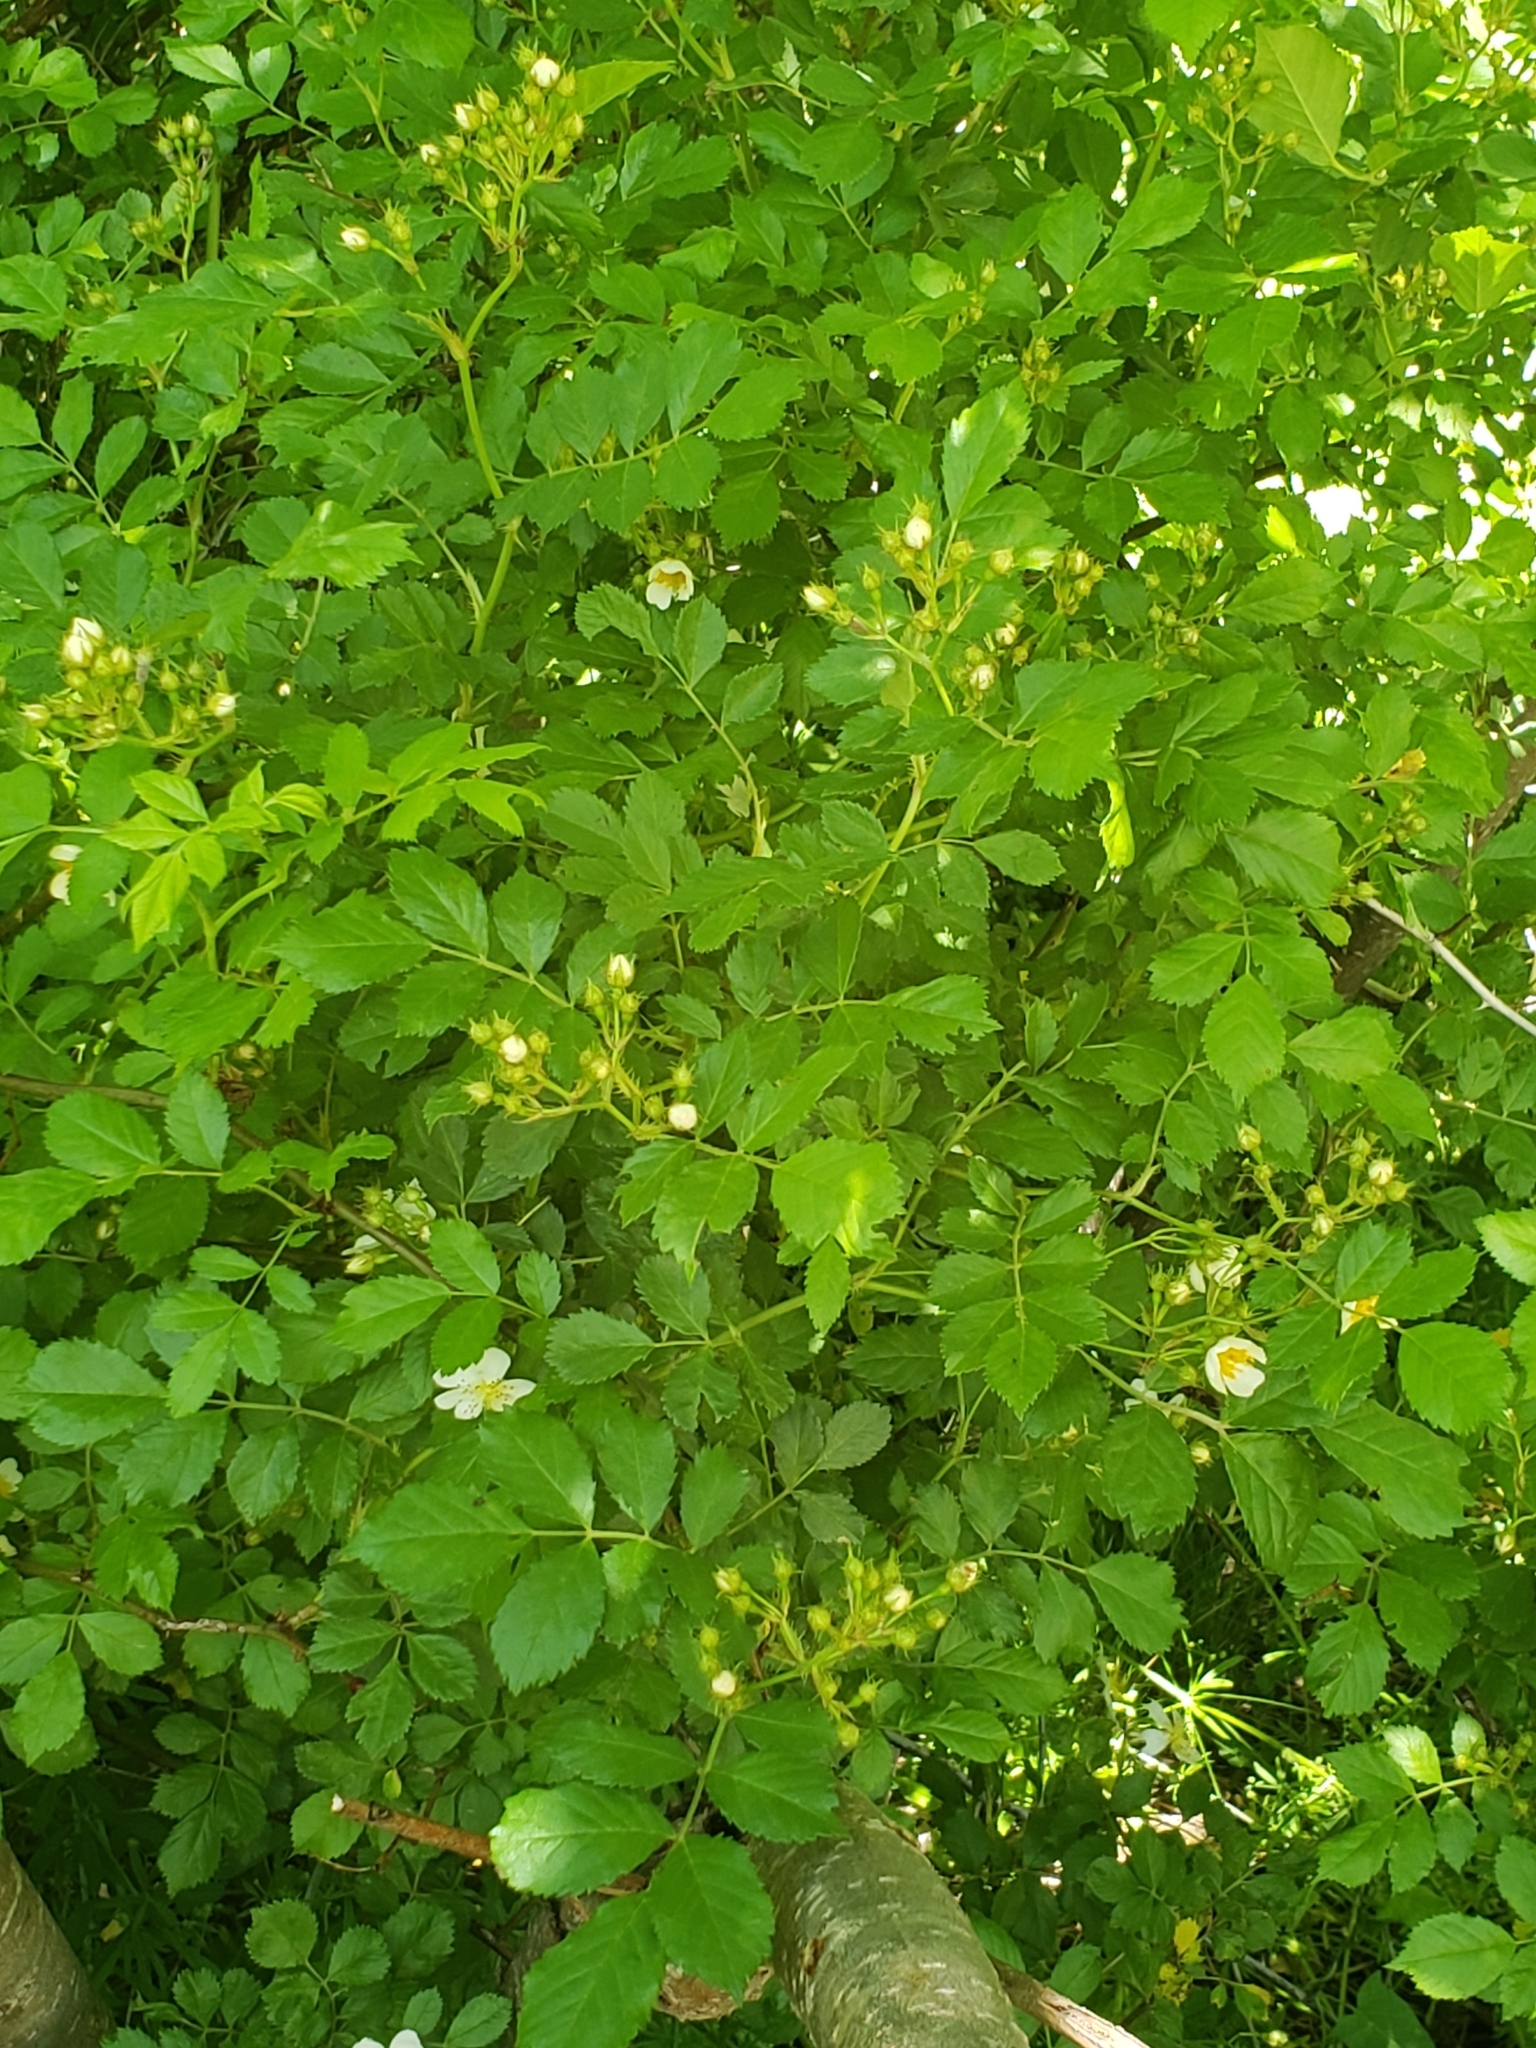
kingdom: Plantae
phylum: Tracheophyta
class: Magnoliopsida
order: Rosales
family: Rosaceae
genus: Rosa
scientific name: Rosa multiflora
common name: Multiflora rose
